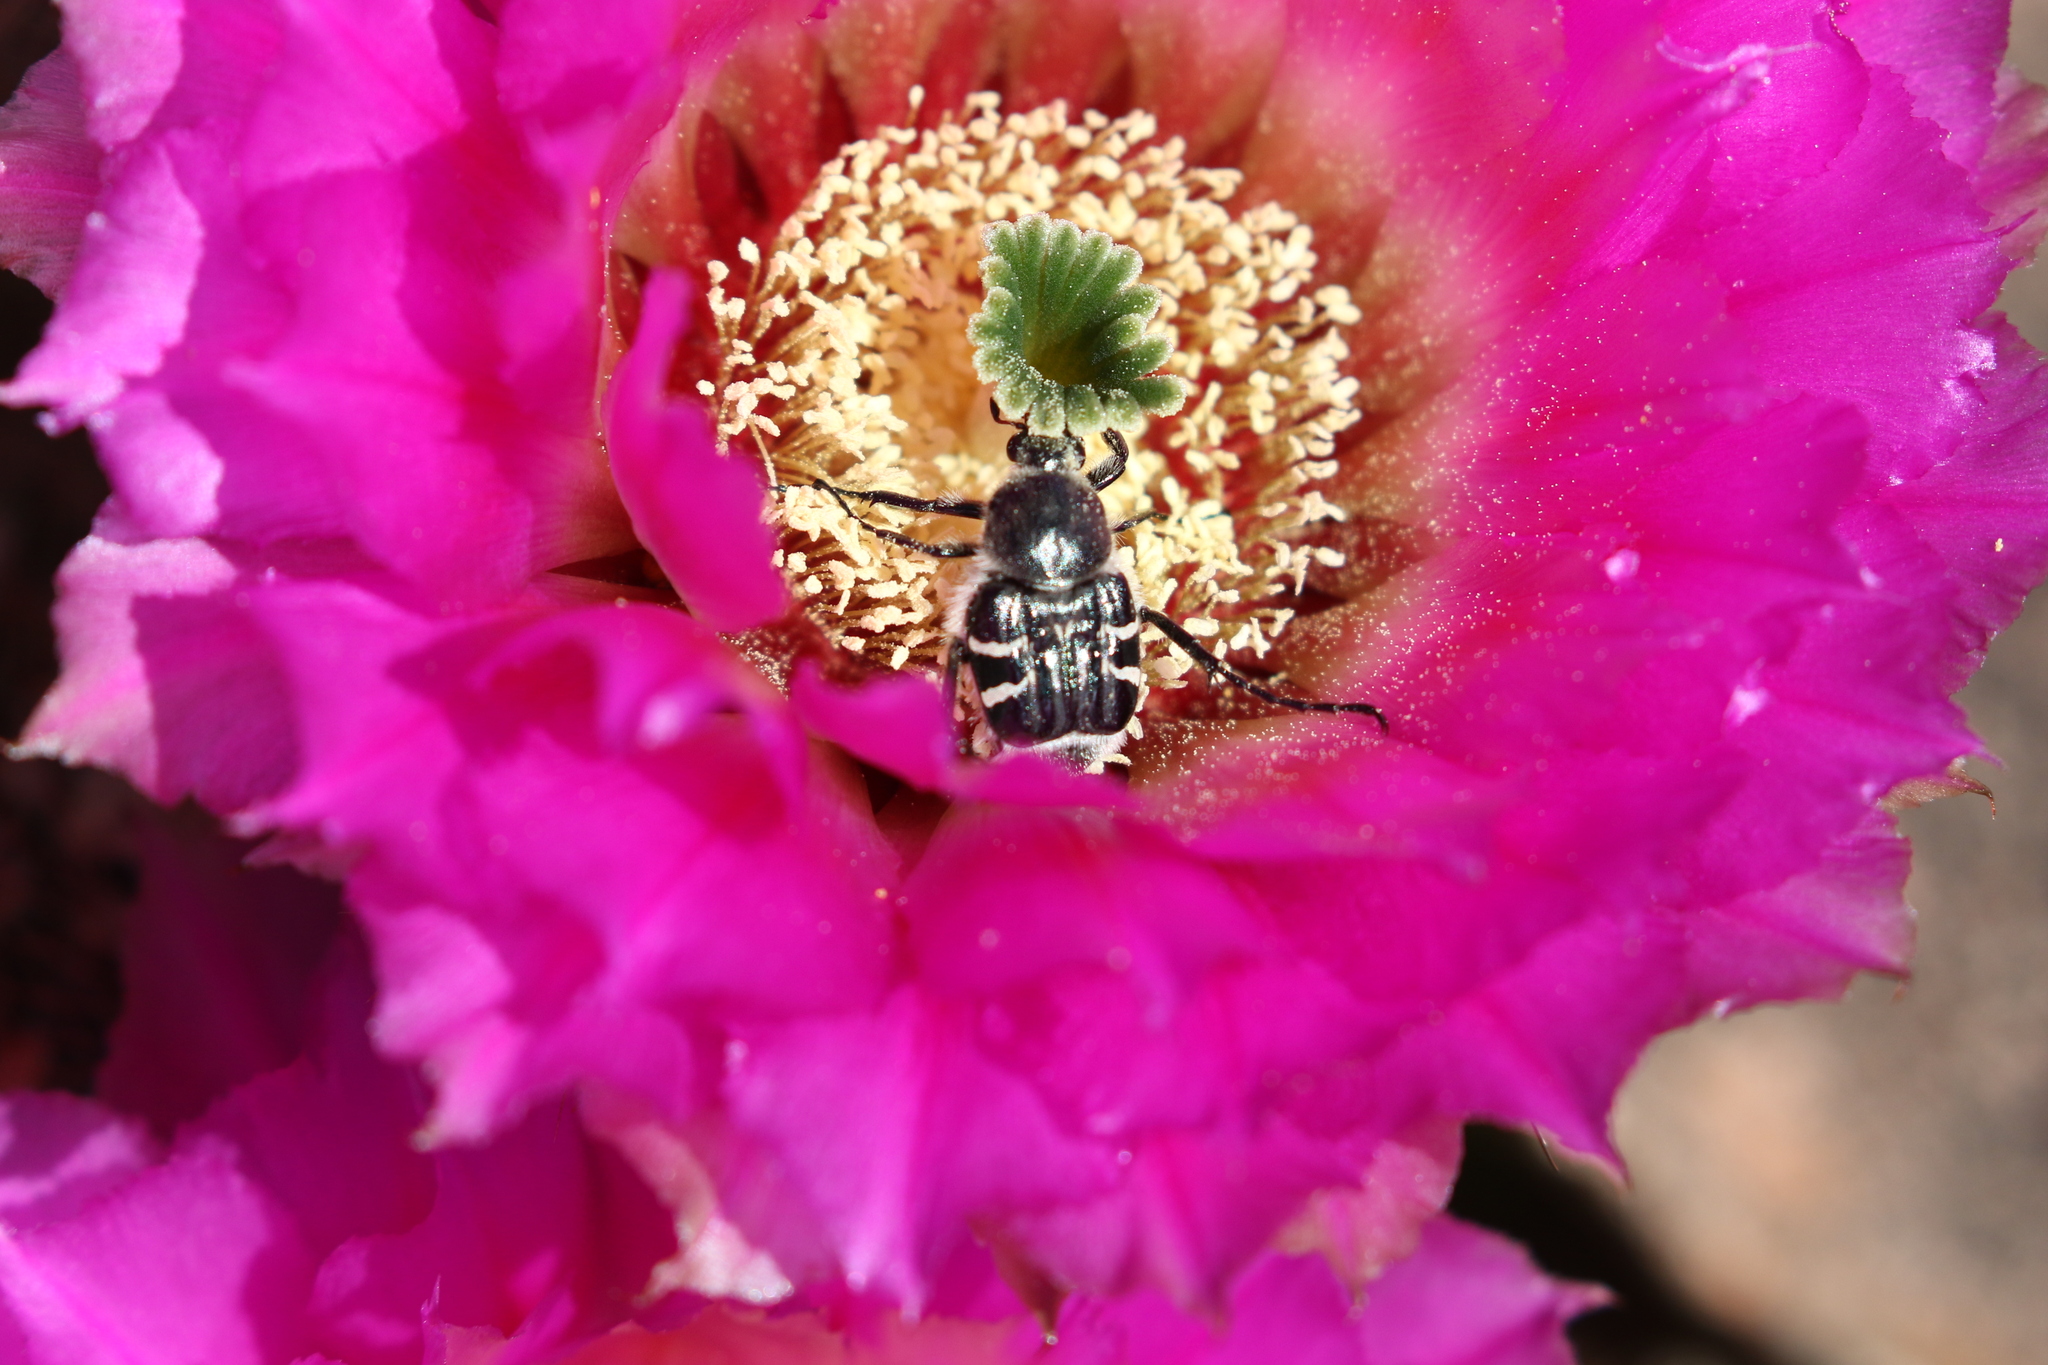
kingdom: Animalia
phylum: Arthropoda
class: Insecta
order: Coleoptera
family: Scarabaeidae
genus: Trichiotinus
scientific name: Trichiotinus texanus
